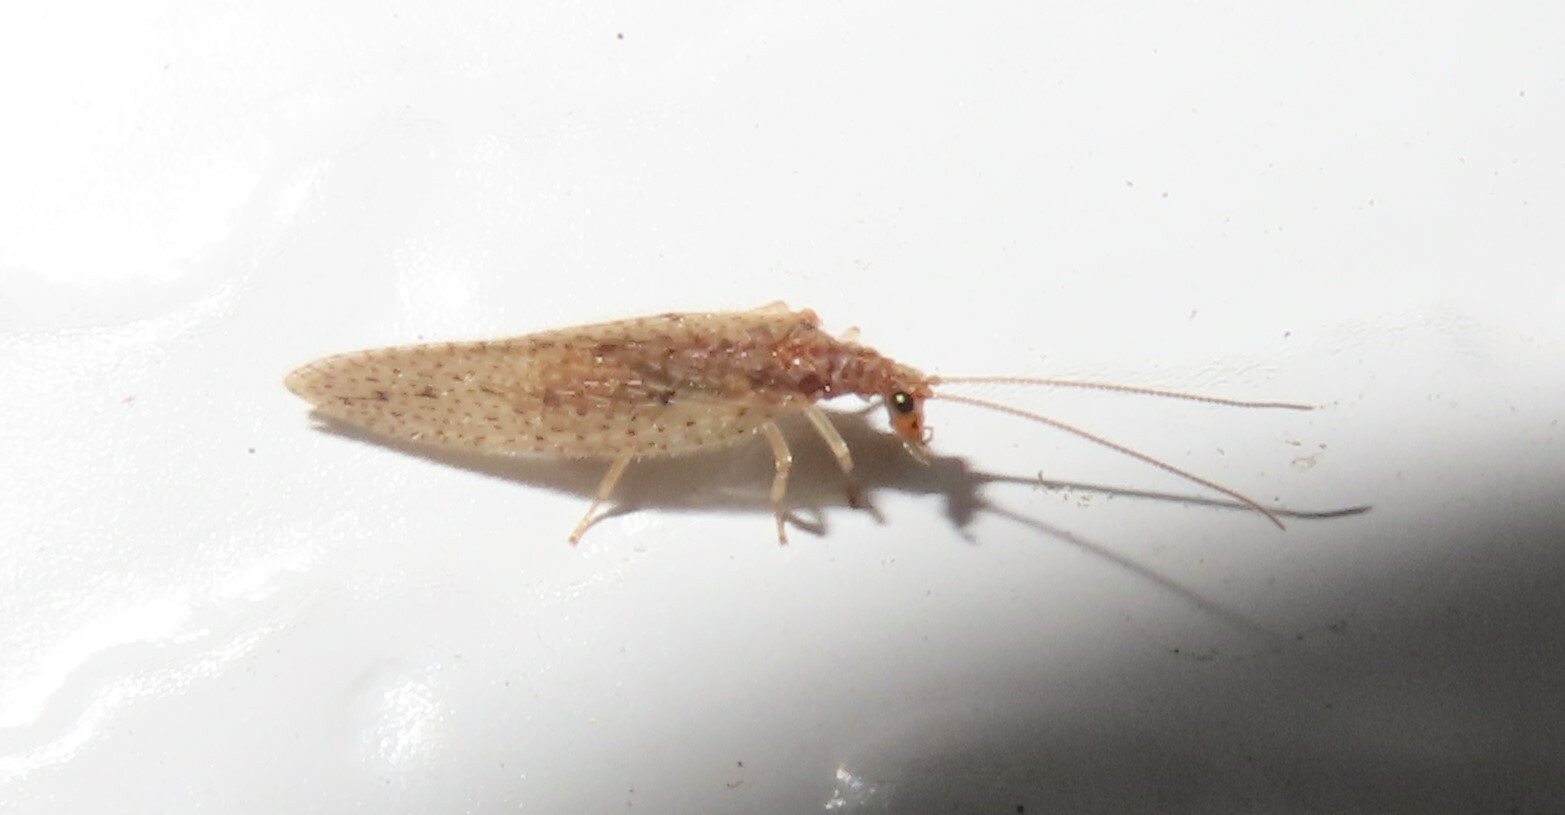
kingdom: Animalia
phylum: Arthropoda
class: Insecta
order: Neuroptera
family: Hemerobiidae
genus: Micromus
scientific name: Micromus subanticus
